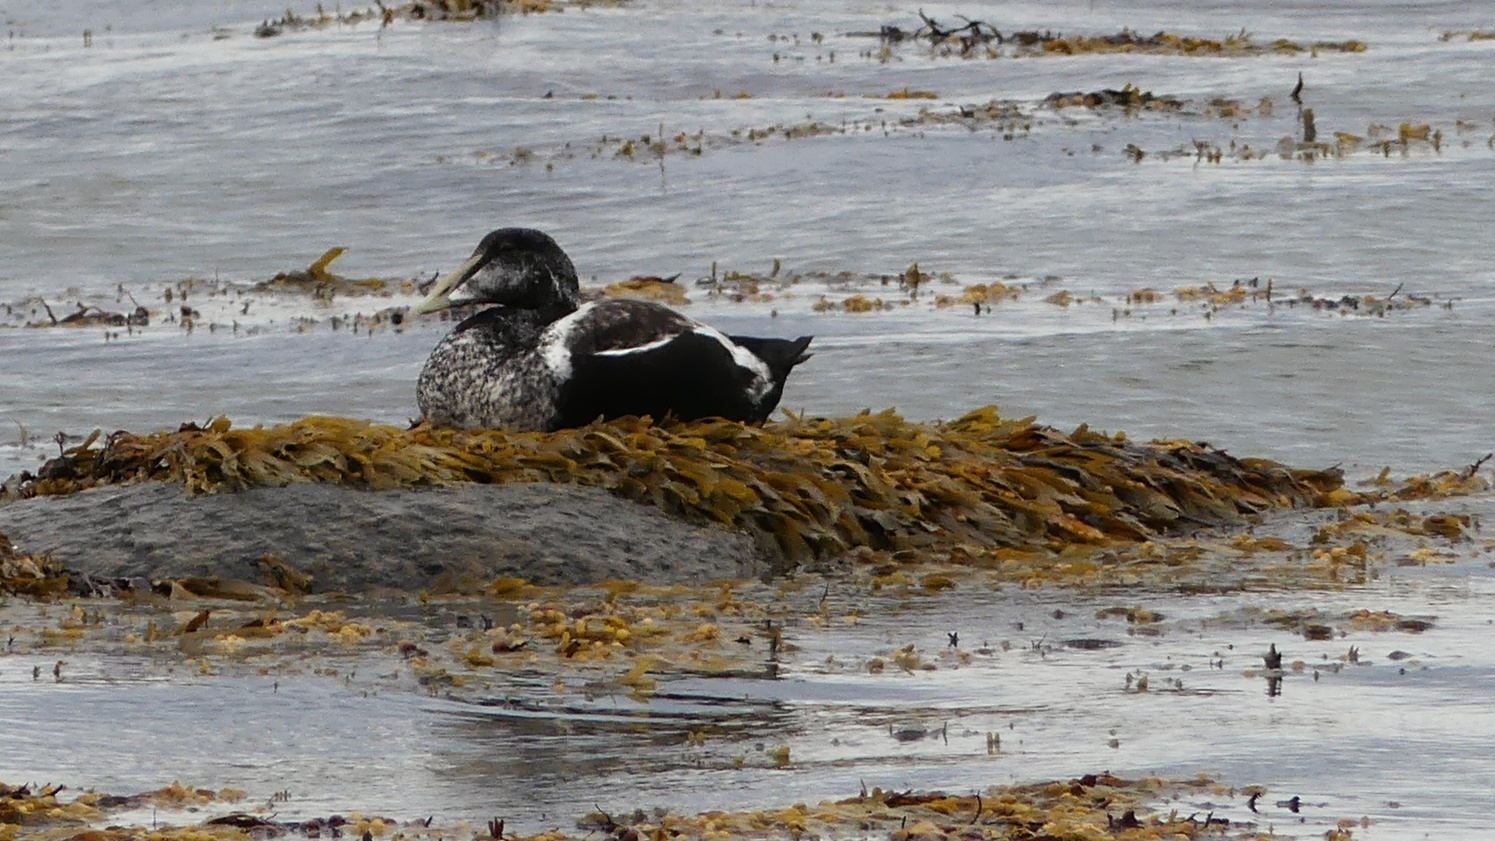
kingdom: Animalia
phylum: Chordata
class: Aves
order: Anseriformes
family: Anatidae
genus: Somateria
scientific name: Somateria mollissima
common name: Common eider
